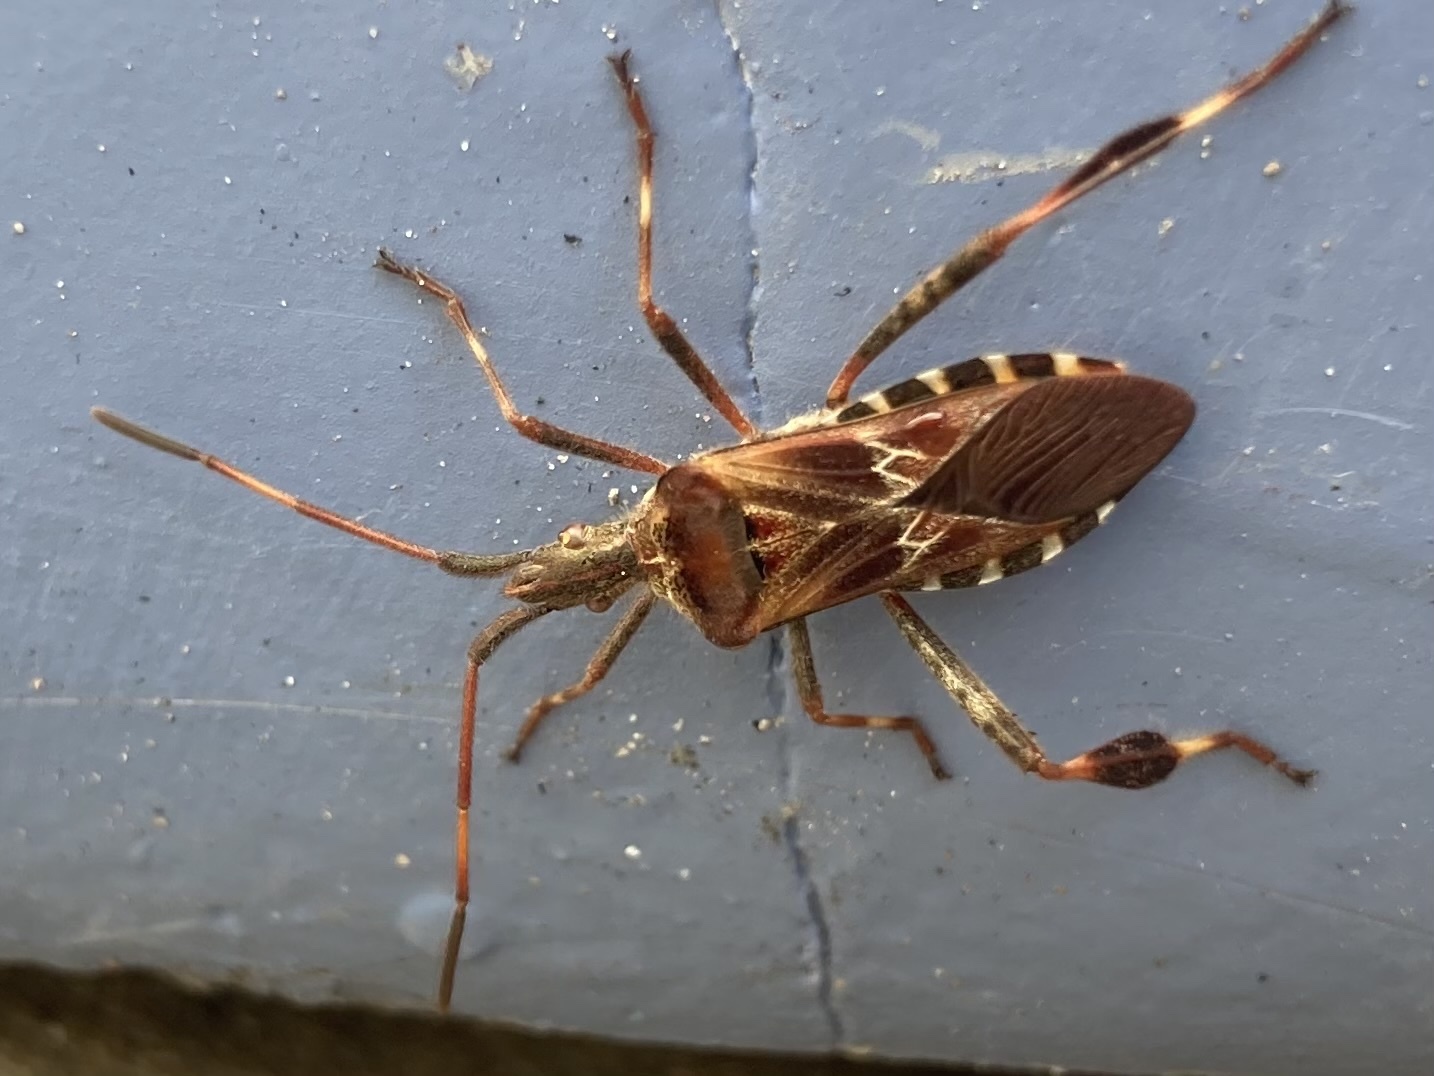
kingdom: Animalia
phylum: Arthropoda
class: Insecta
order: Hemiptera
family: Coreidae
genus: Leptoglossus
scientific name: Leptoglossus occidentalis
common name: Western conifer-seed bug
